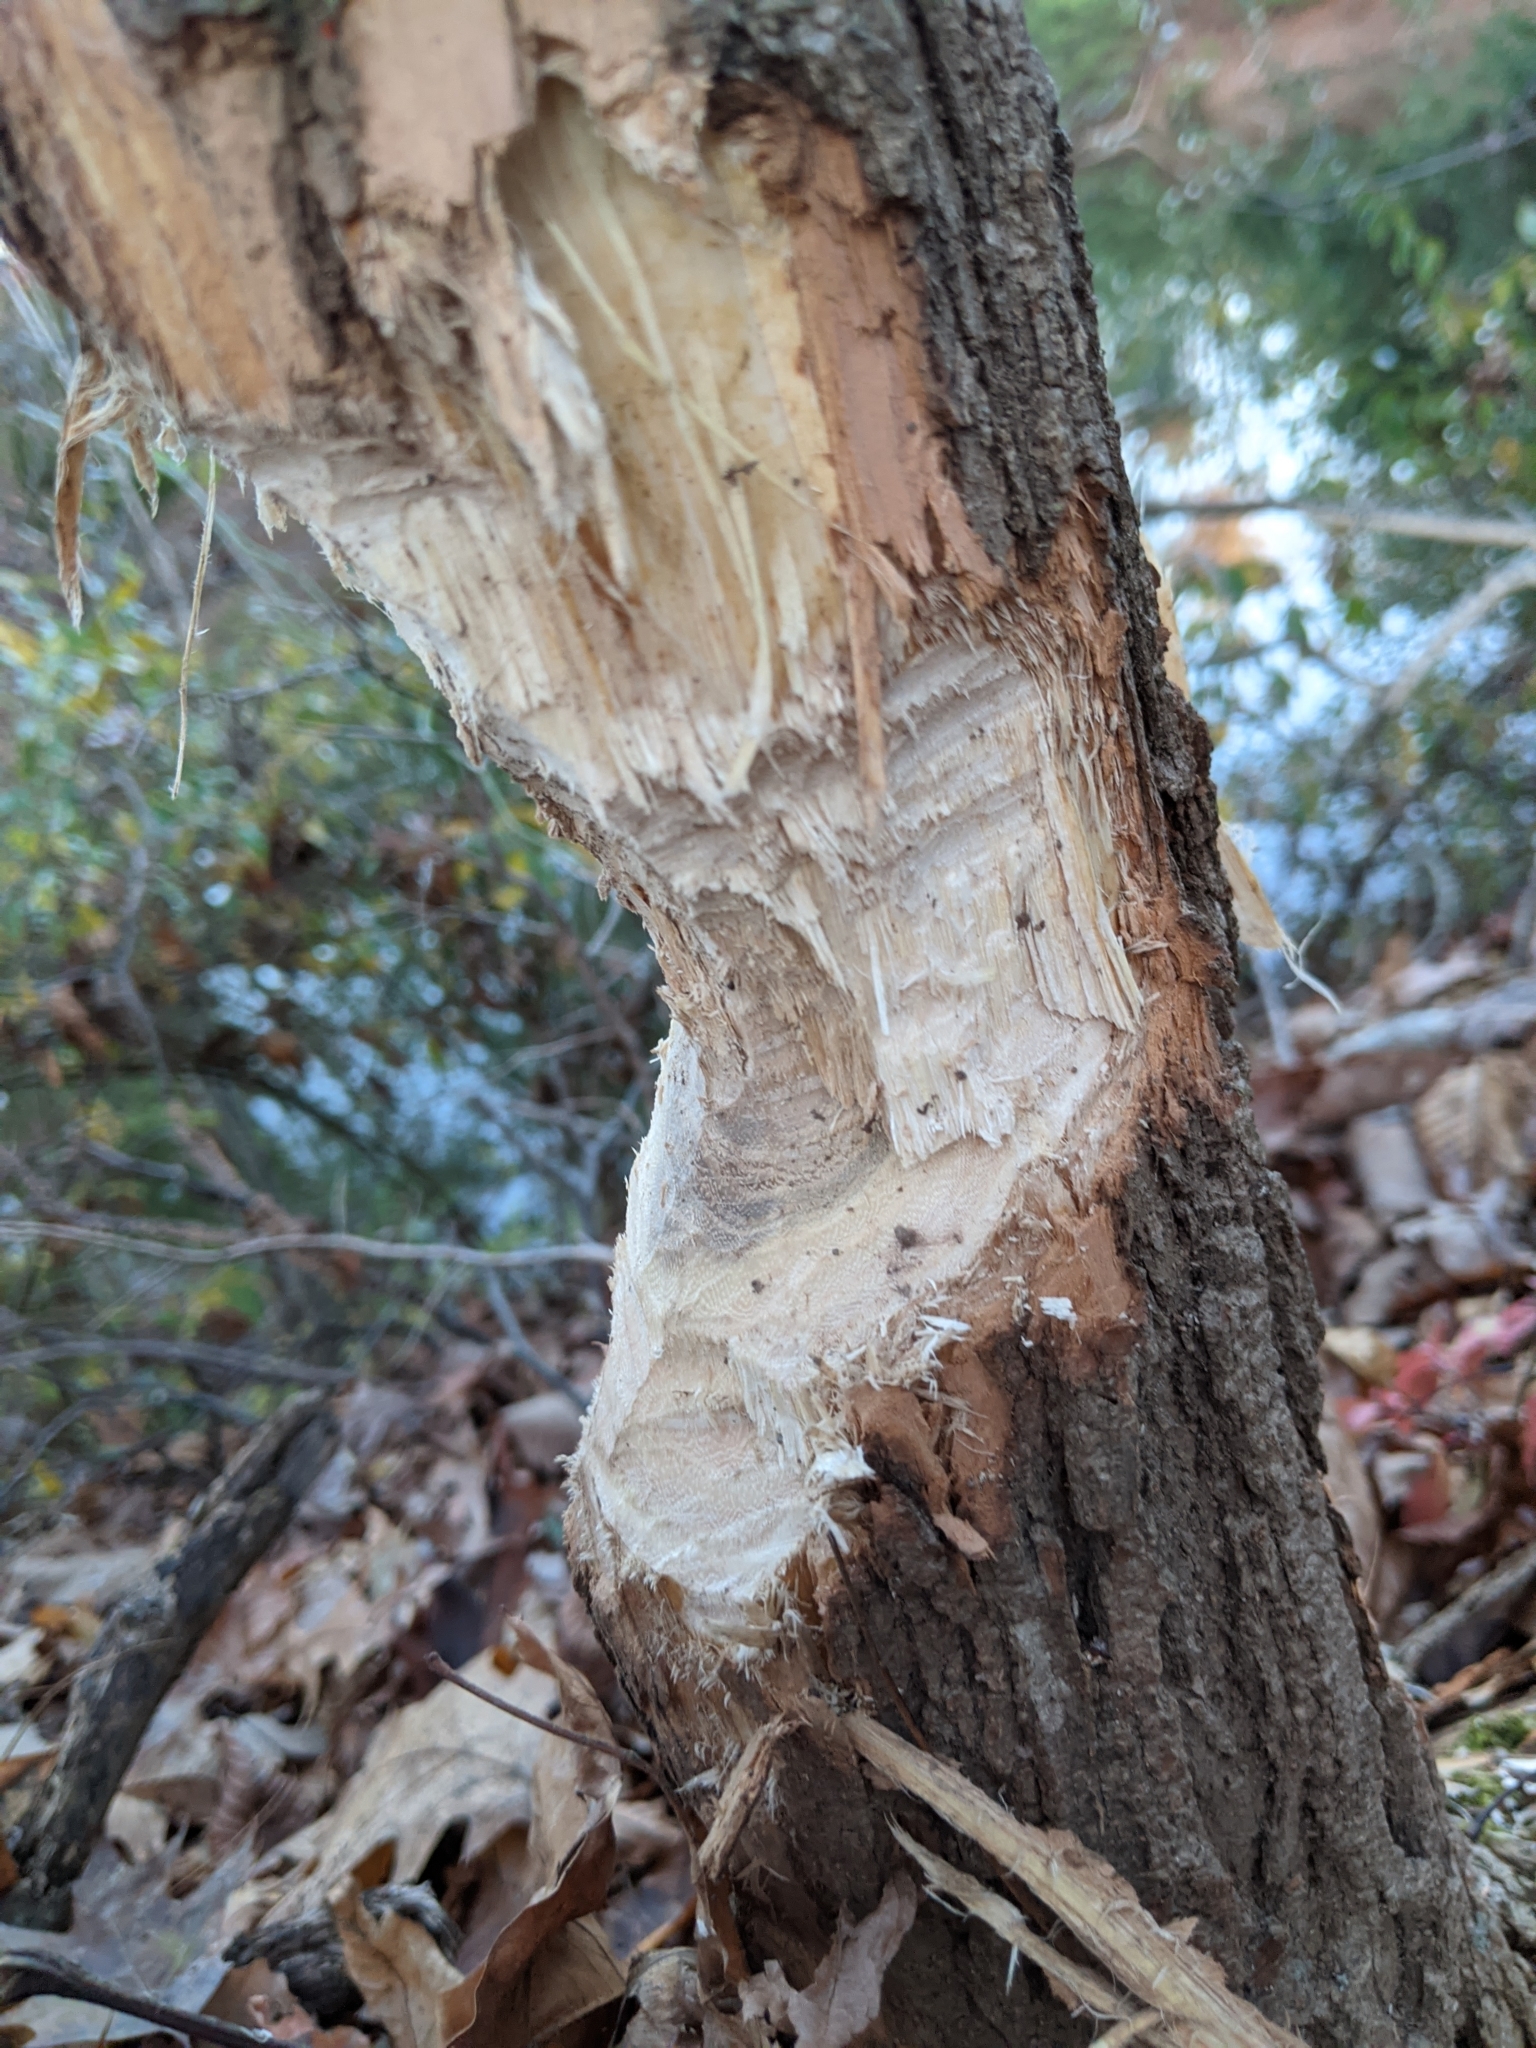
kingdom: Animalia
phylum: Chordata
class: Mammalia
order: Rodentia
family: Castoridae
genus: Castor
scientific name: Castor canadensis
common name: American beaver
